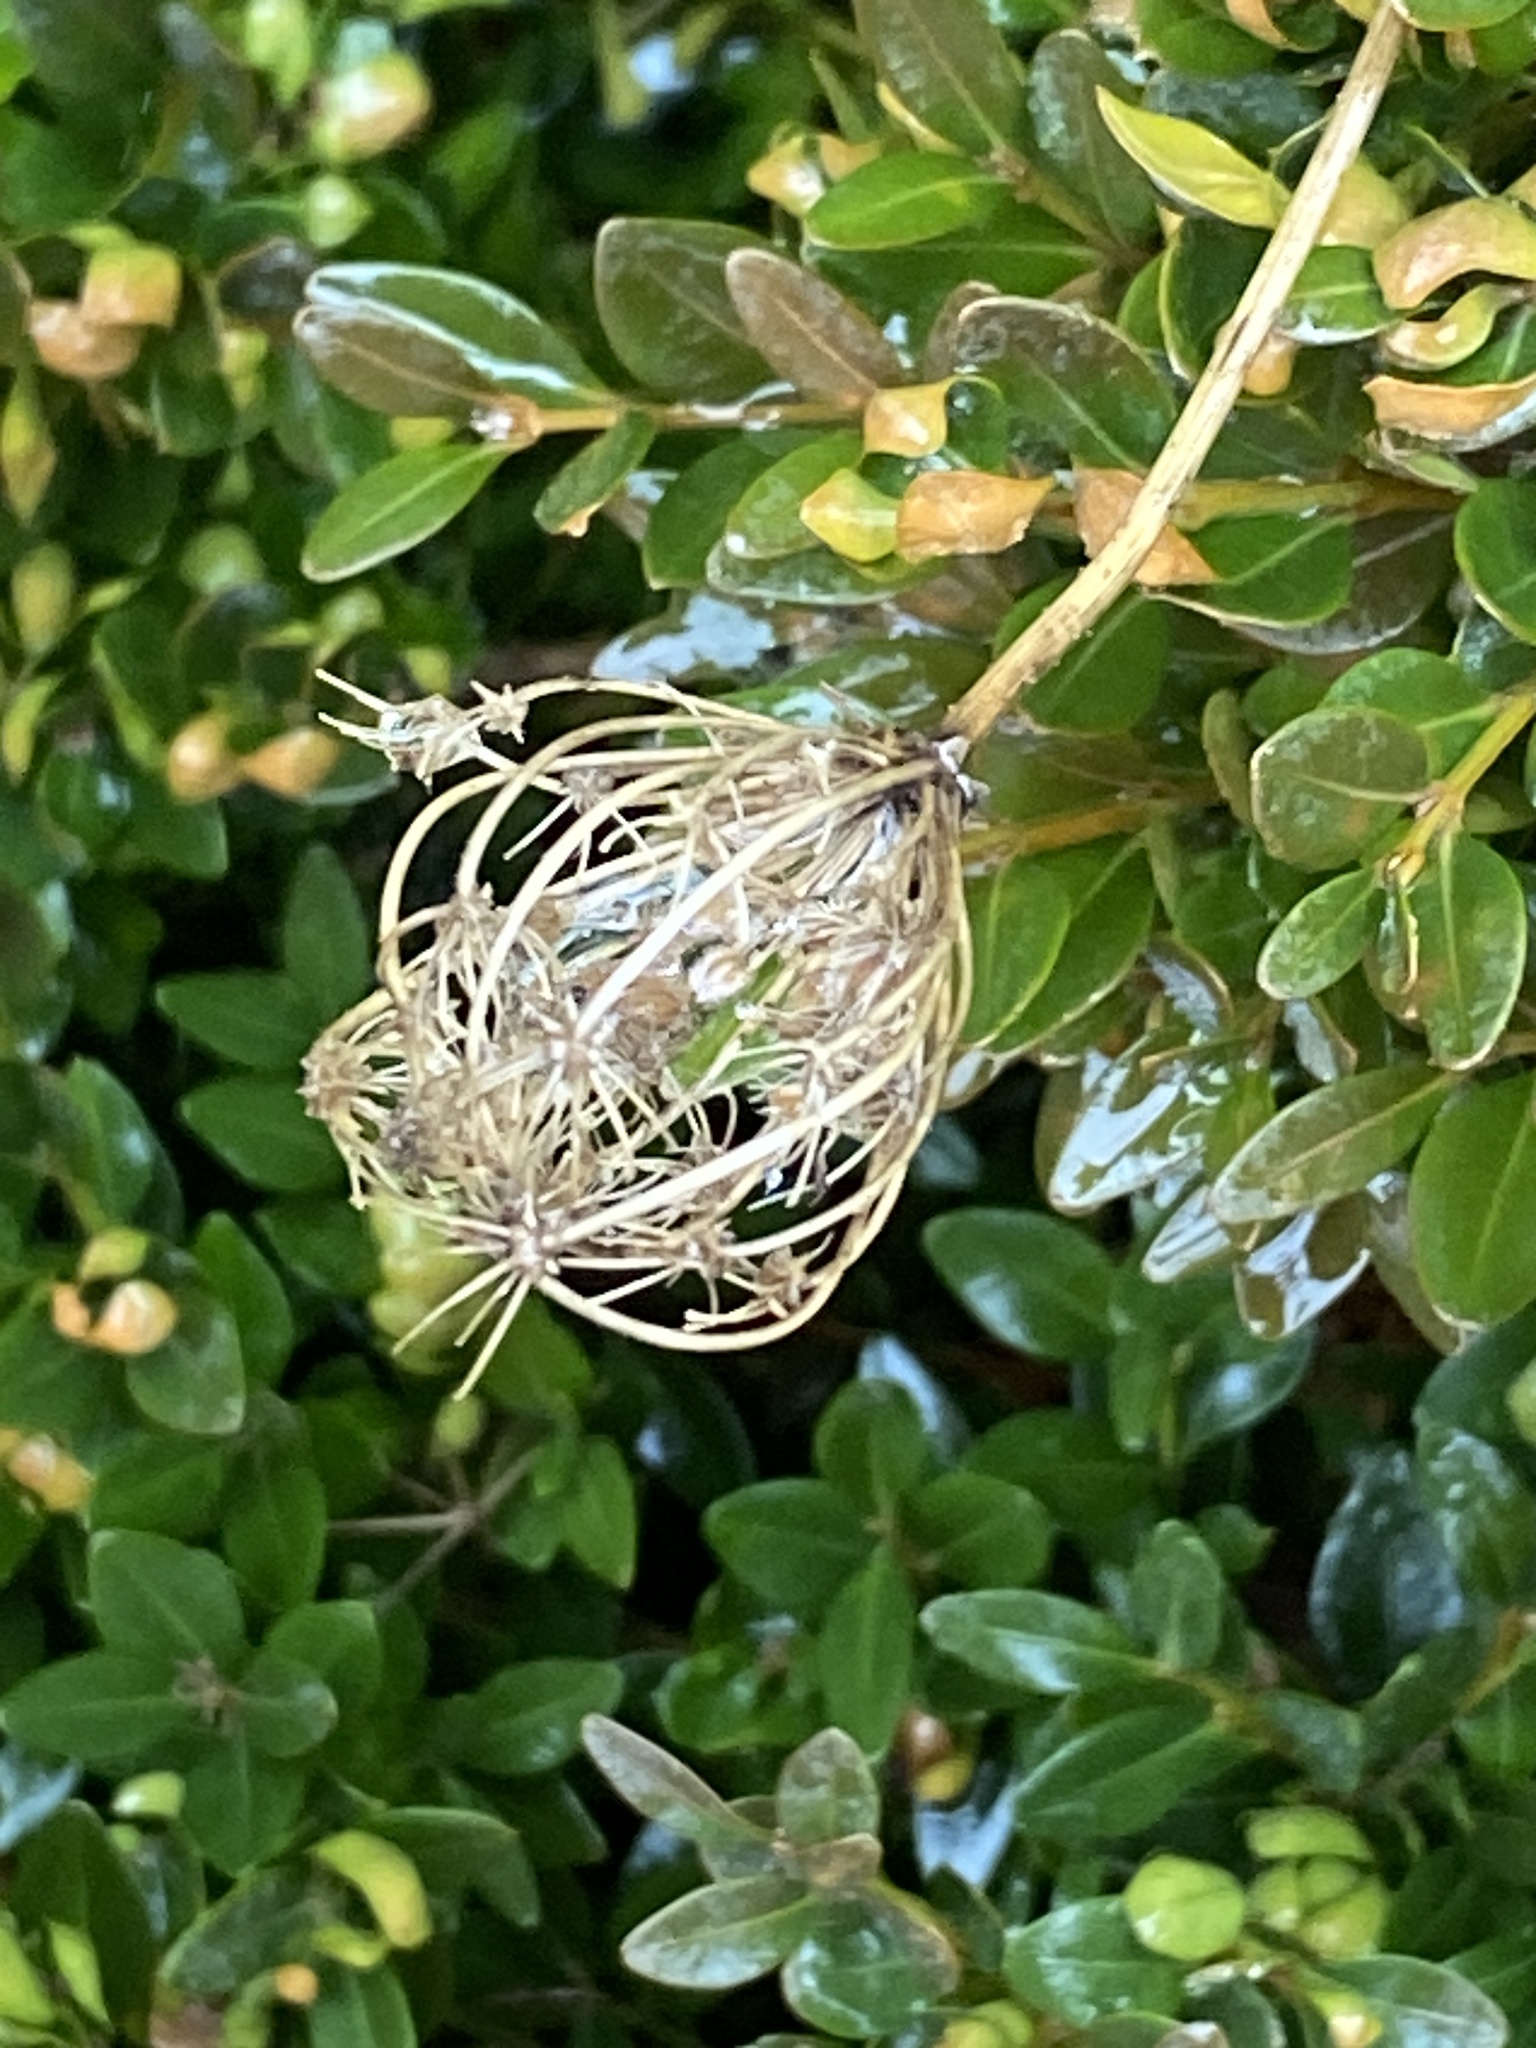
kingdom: Plantae
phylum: Tracheophyta
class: Magnoliopsida
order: Apiales
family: Apiaceae
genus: Daucus
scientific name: Daucus carota
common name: Wild carrot
